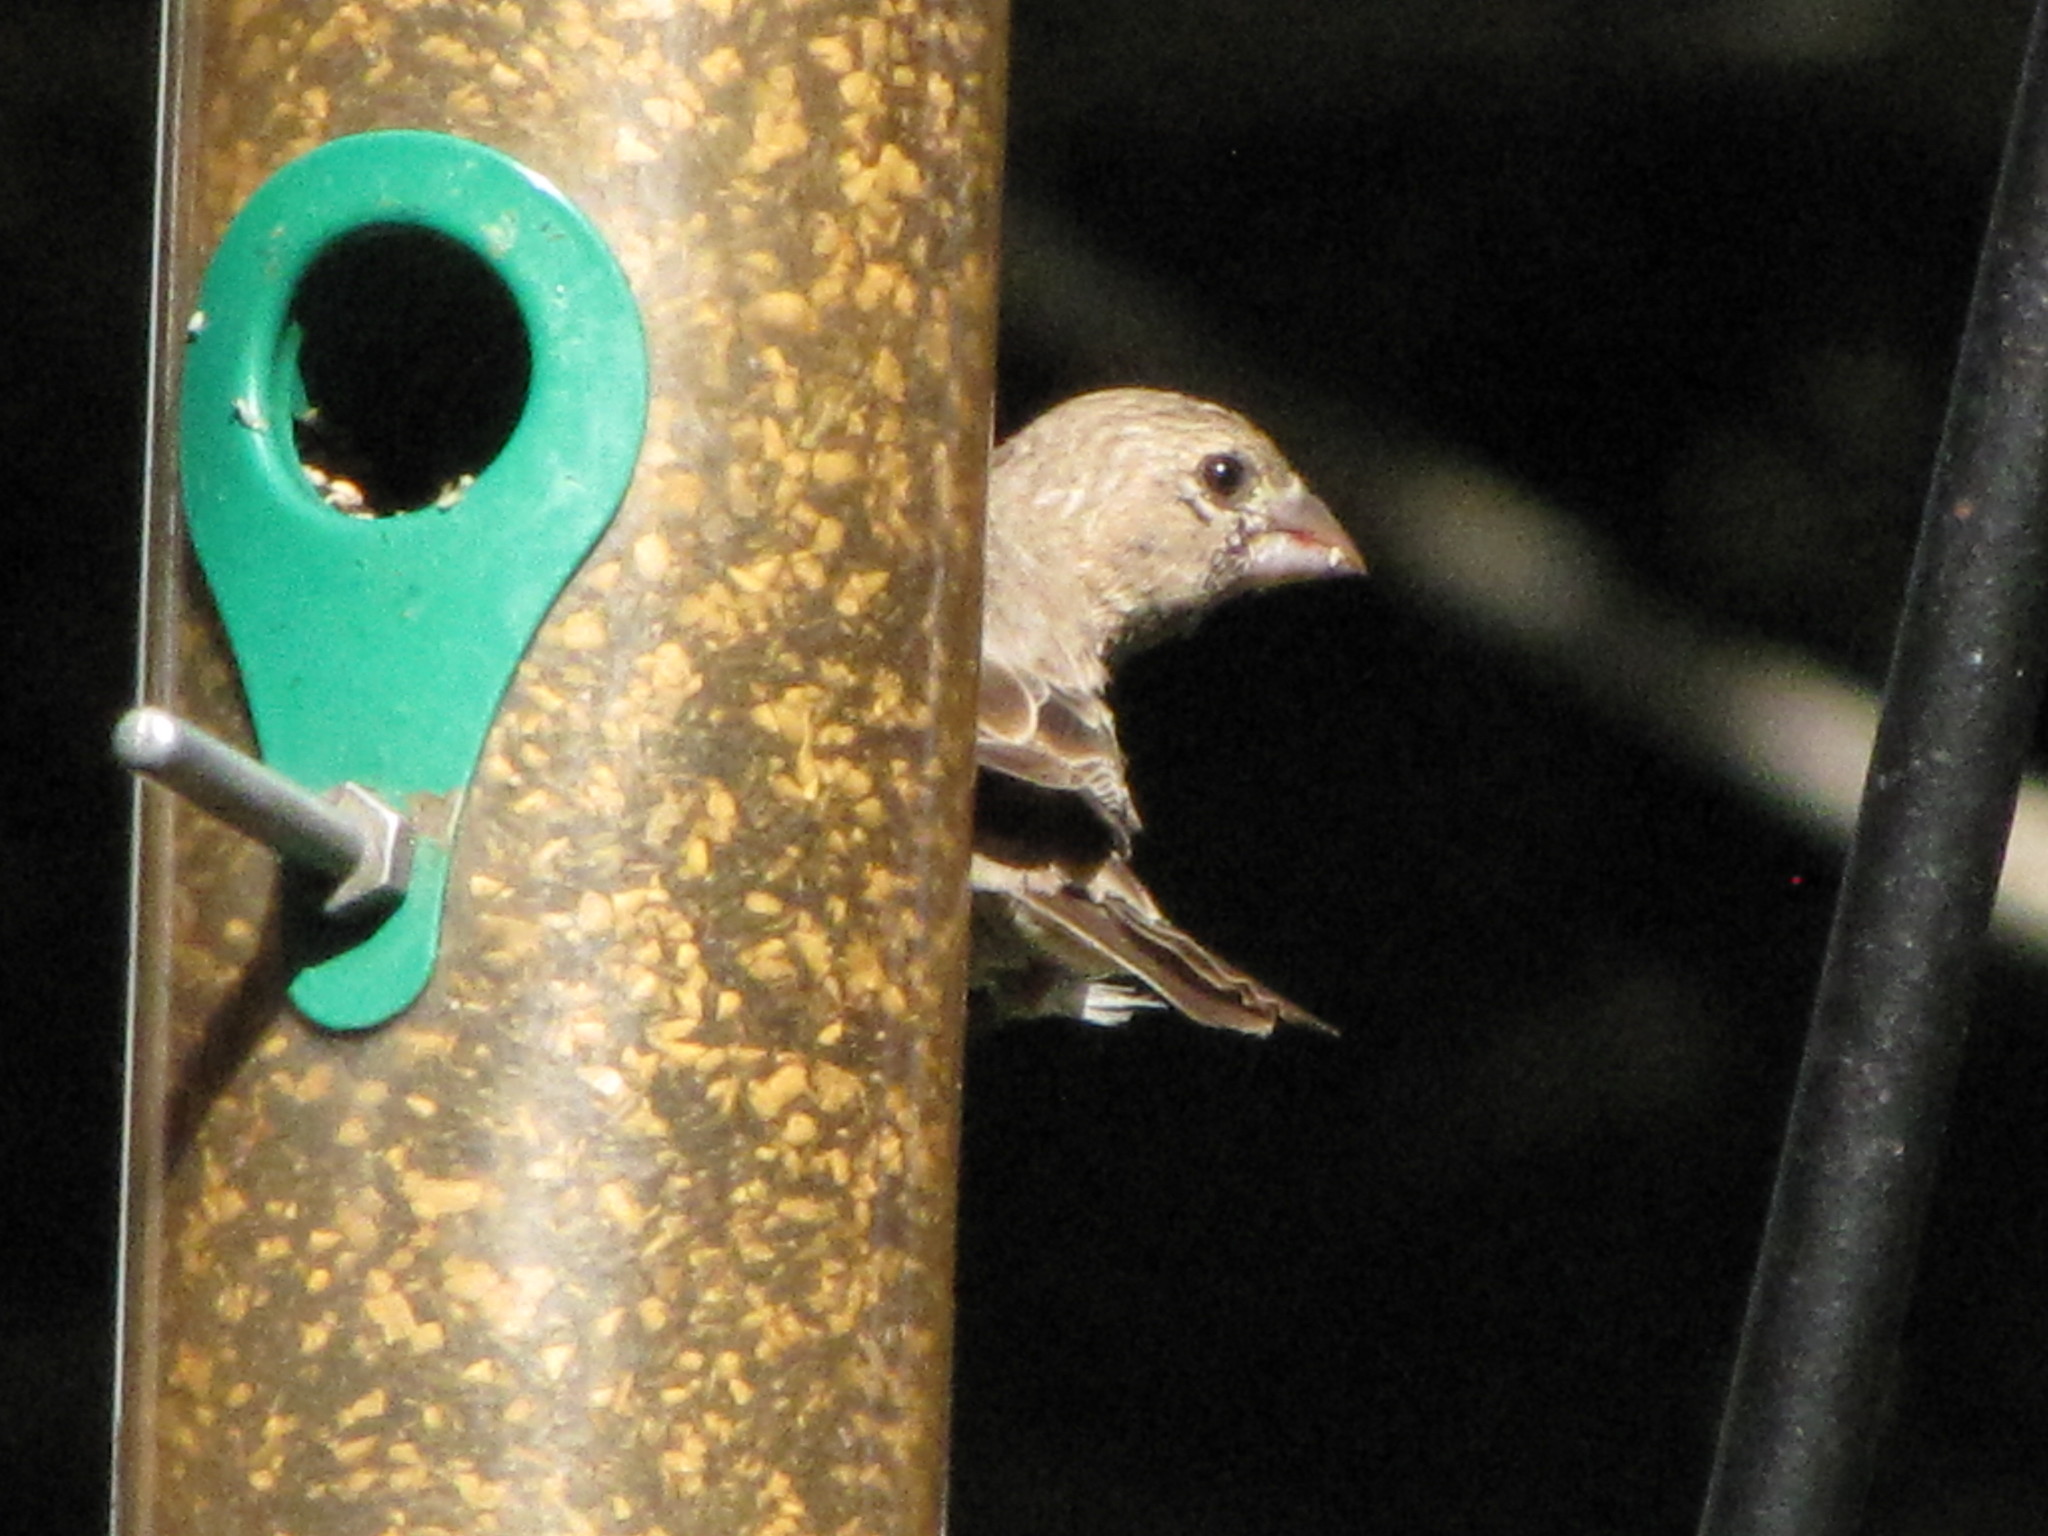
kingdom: Animalia
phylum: Chordata
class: Aves
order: Passeriformes
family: Fringillidae
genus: Haemorhous
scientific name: Haemorhous mexicanus
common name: House finch
